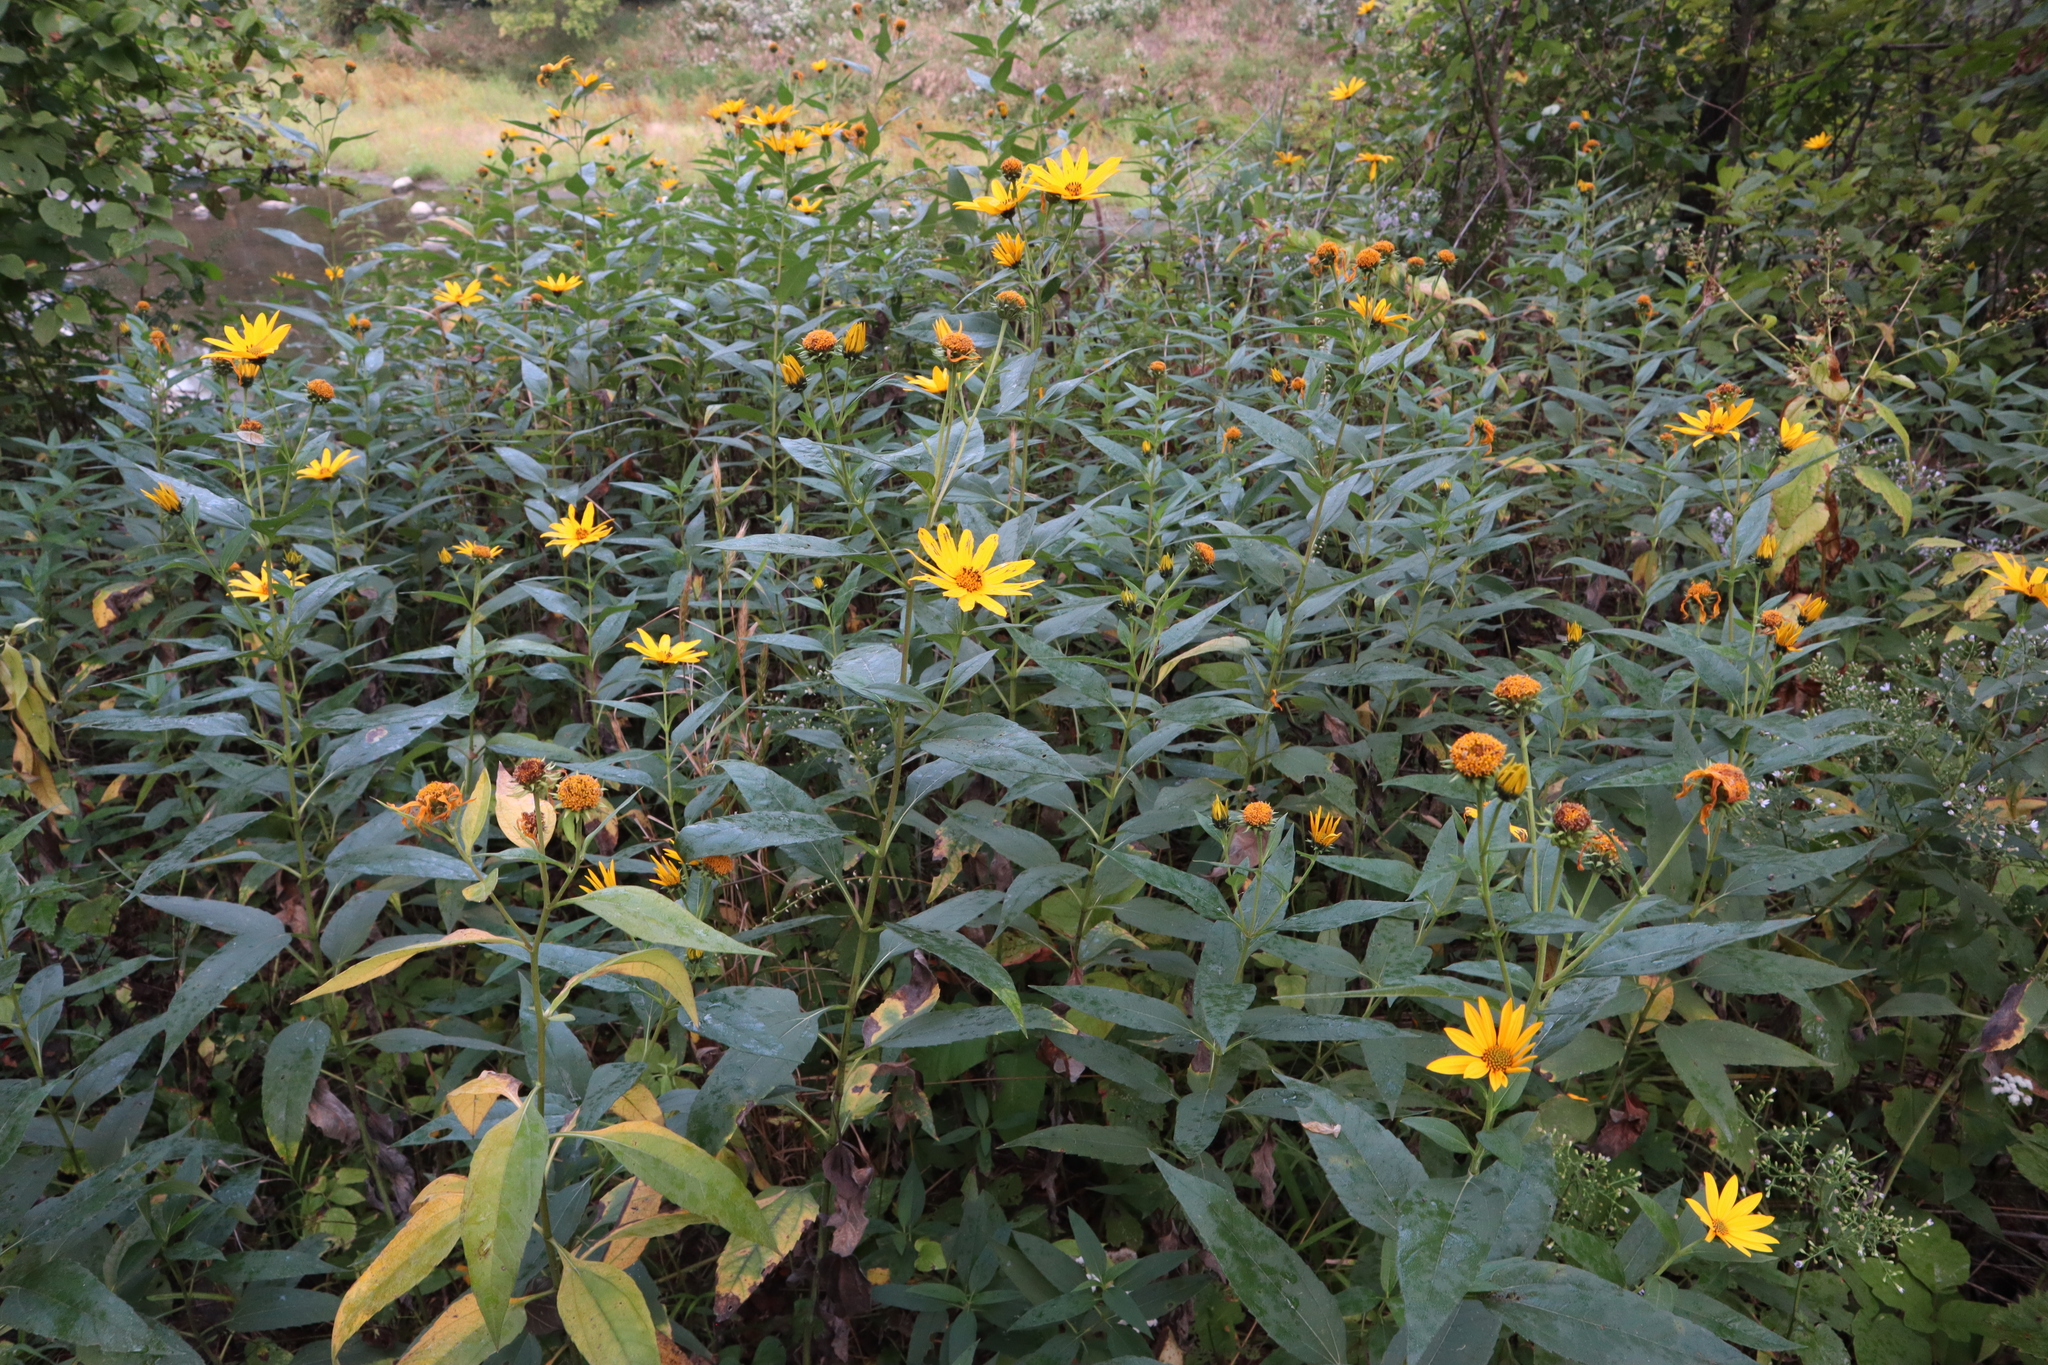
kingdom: Plantae
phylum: Tracheophyta
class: Magnoliopsida
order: Asterales
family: Asteraceae
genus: Helianthus
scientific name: Helianthus tuberosus
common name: Jerusalem artichoke
